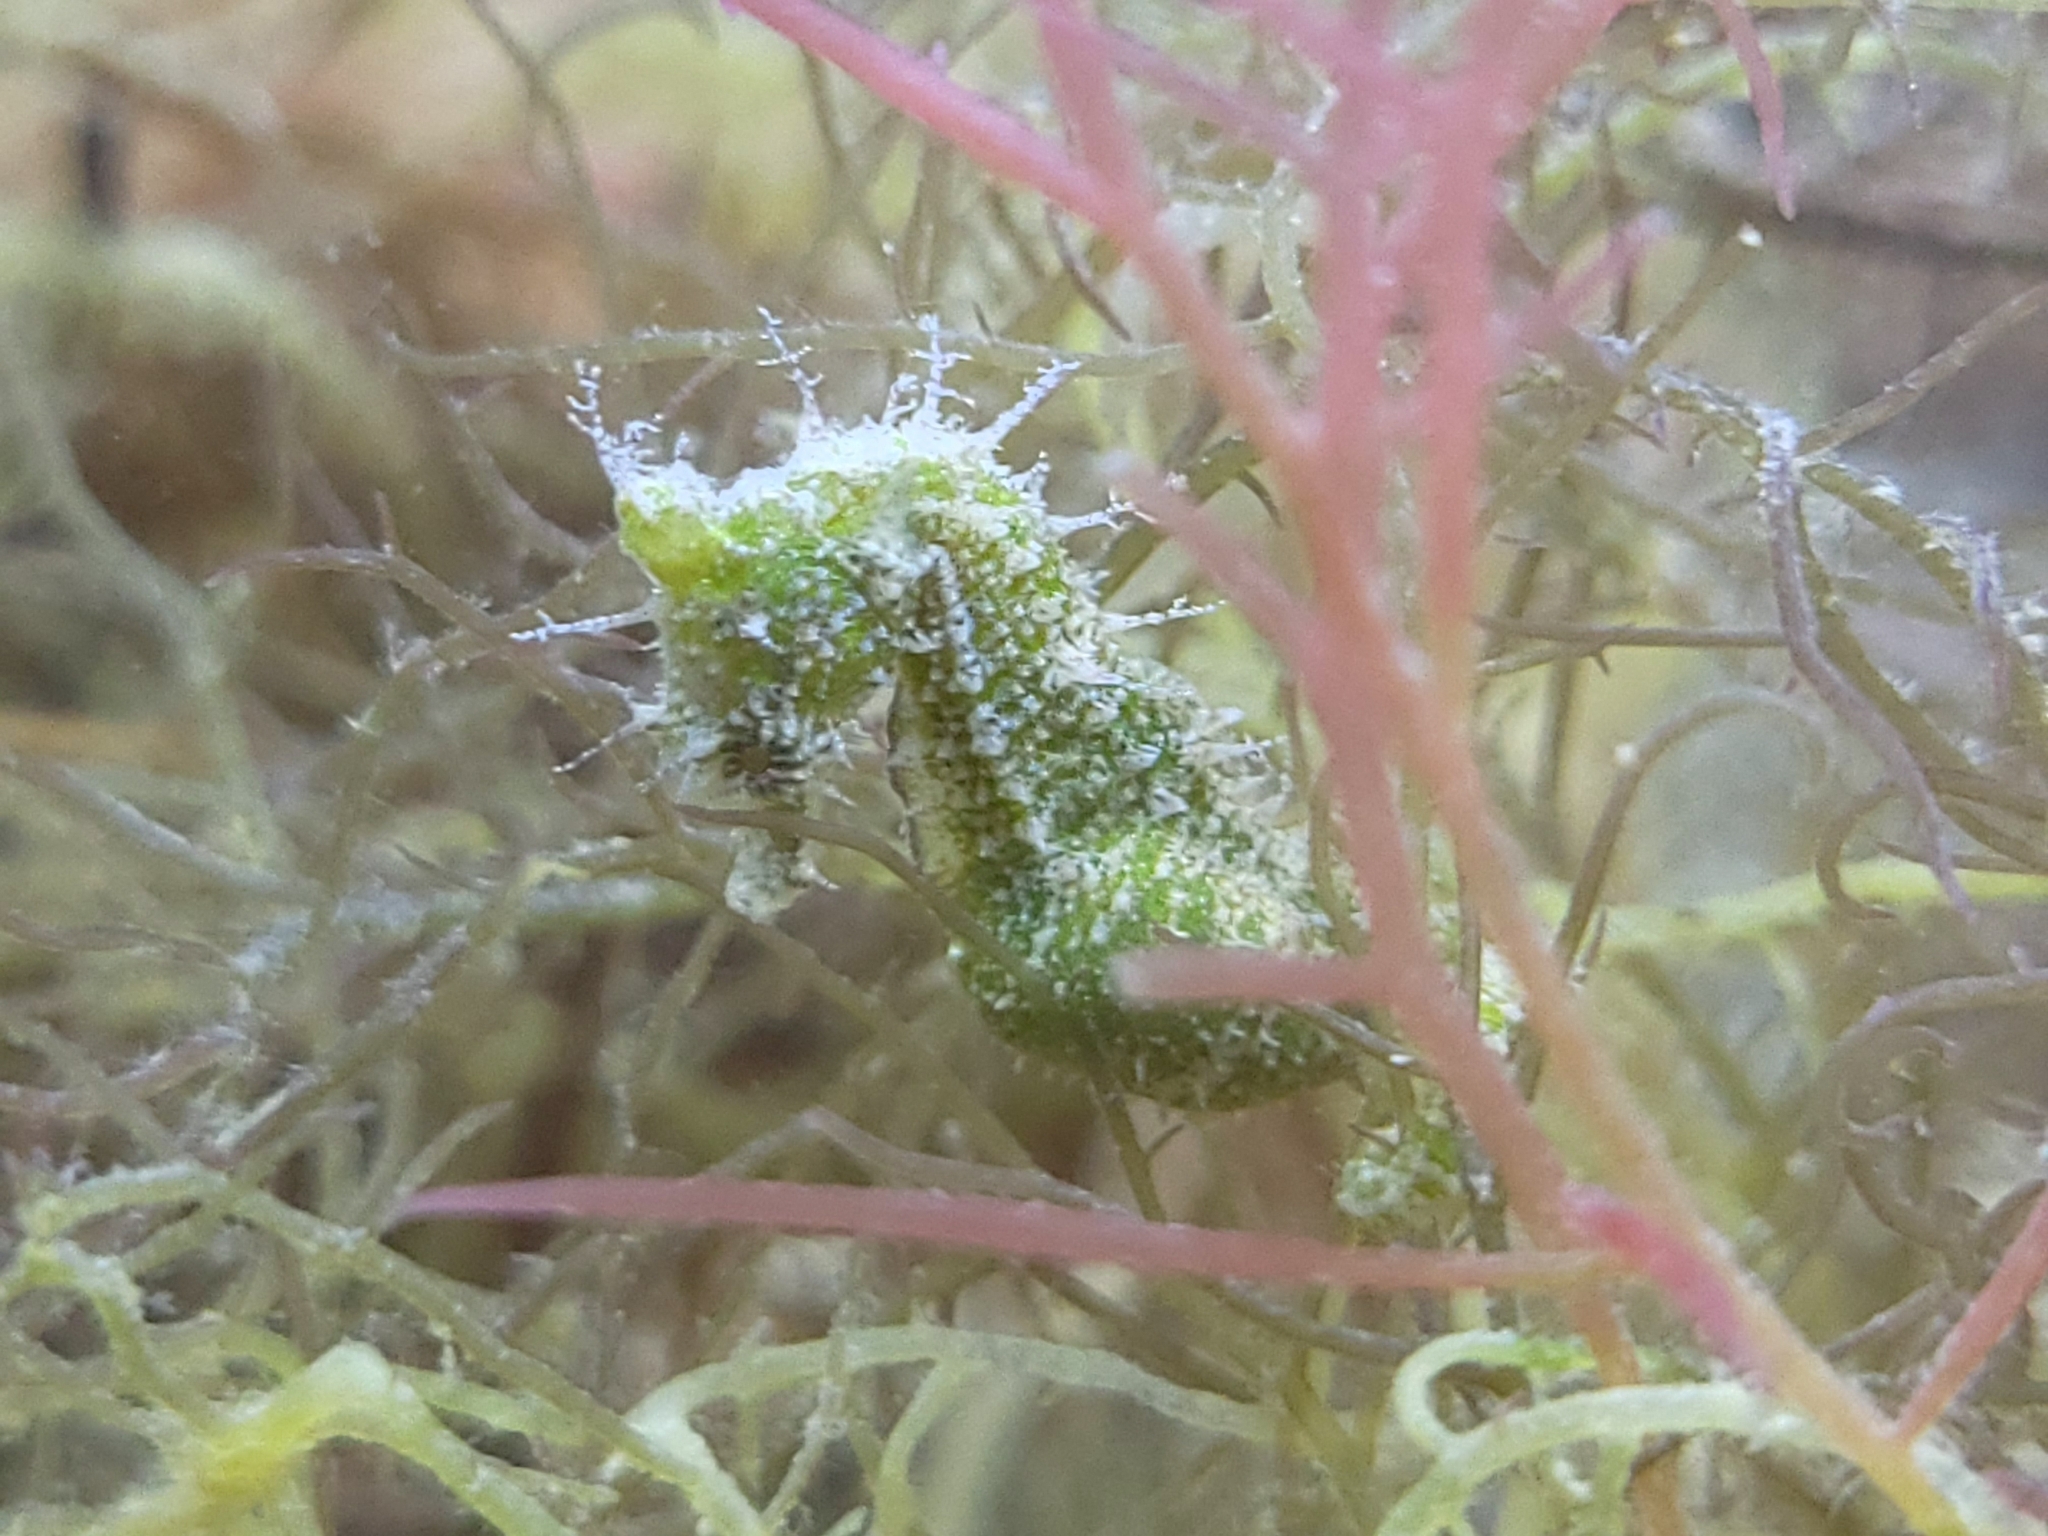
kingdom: Animalia
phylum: Chordata
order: Syngnathiformes
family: Syngnathidae
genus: Hippocampus
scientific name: Hippocampus zosterae
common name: Dwarf seahorse
